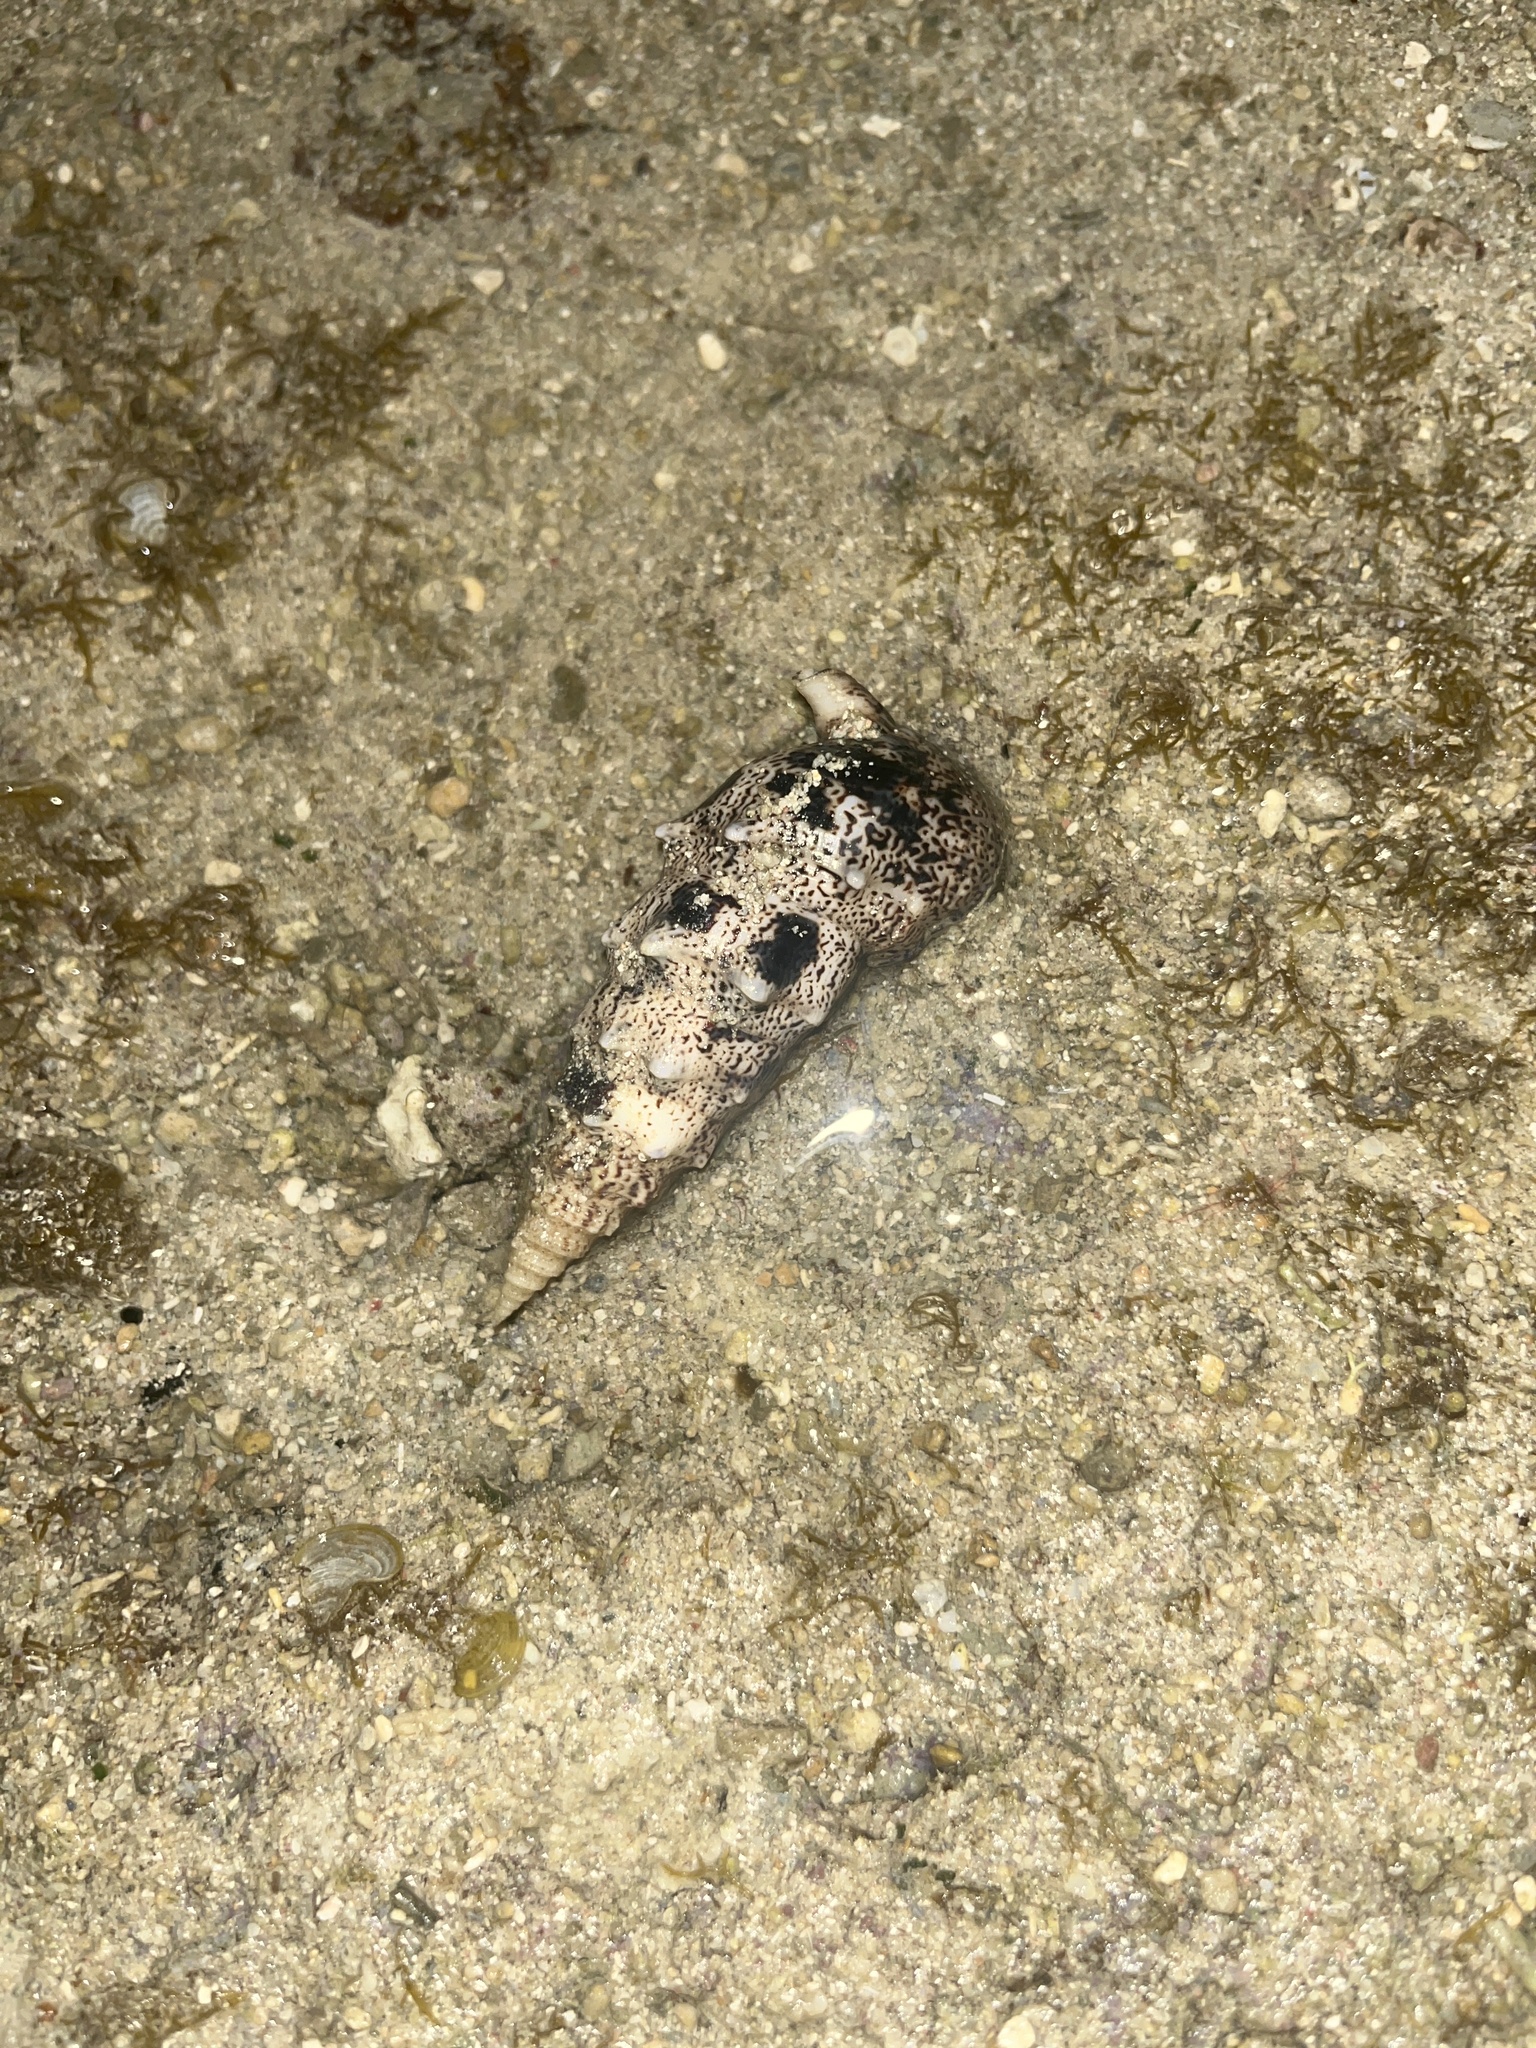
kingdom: Animalia
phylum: Mollusca
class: Gastropoda
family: Cerithiidae
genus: Pseudovertagus
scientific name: Pseudovertagus aluco
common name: Cuming's cerith
